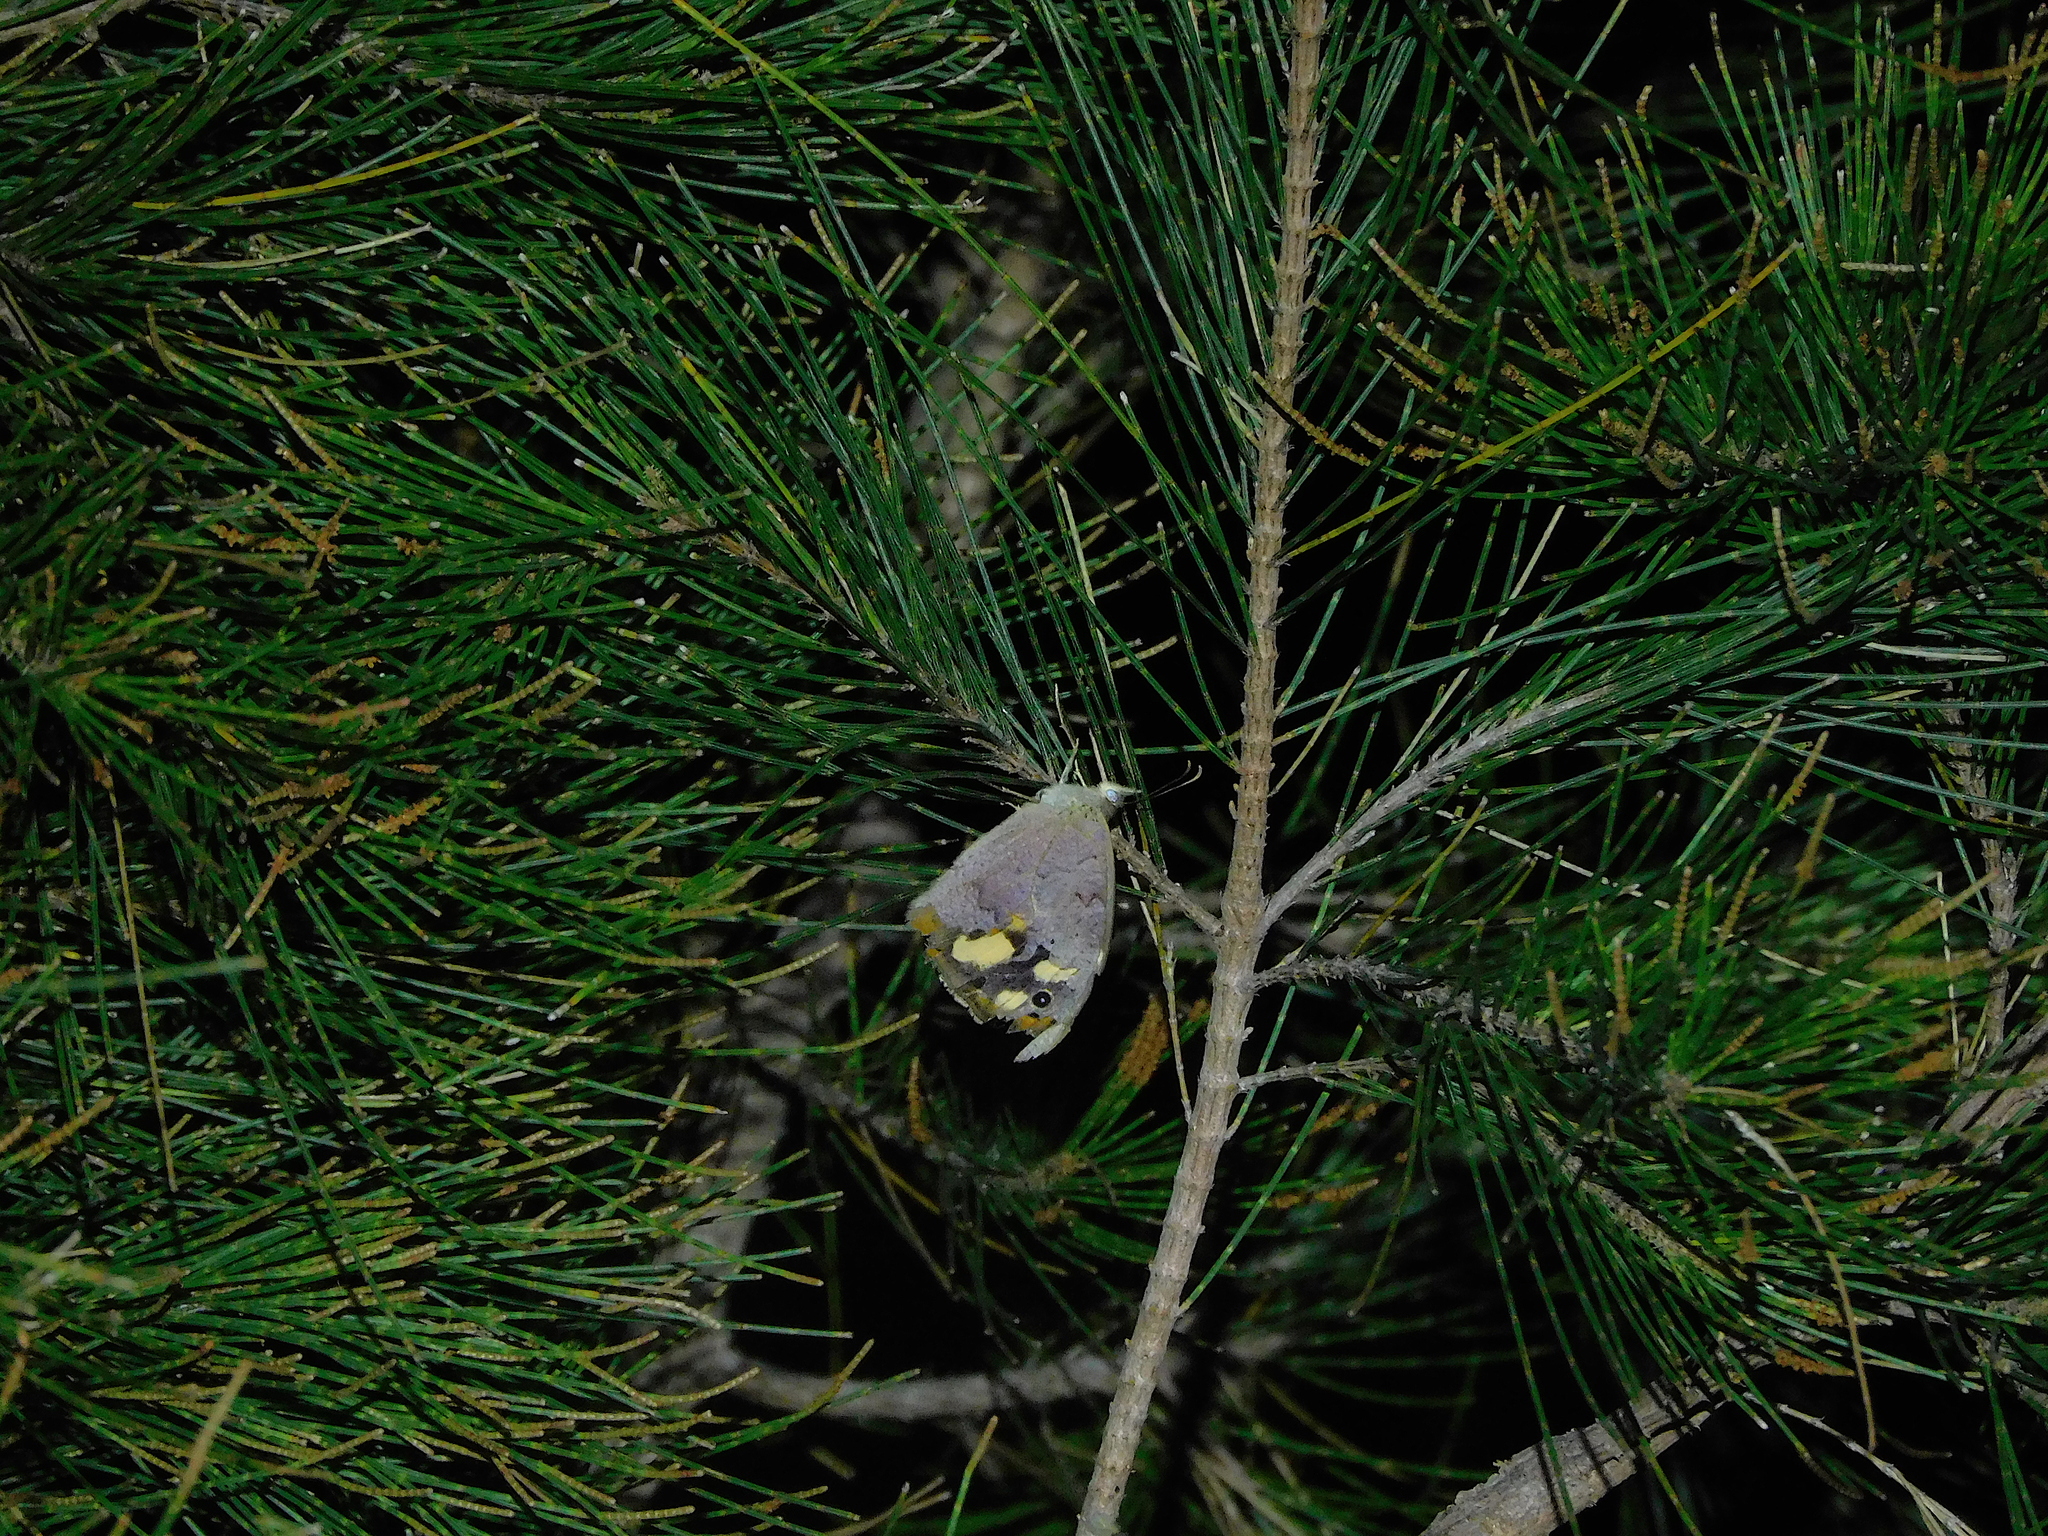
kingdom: Animalia
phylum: Arthropoda
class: Insecta
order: Lepidoptera
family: Nymphalidae
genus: Heteronympha
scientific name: Heteronympha merope
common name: Common brown
